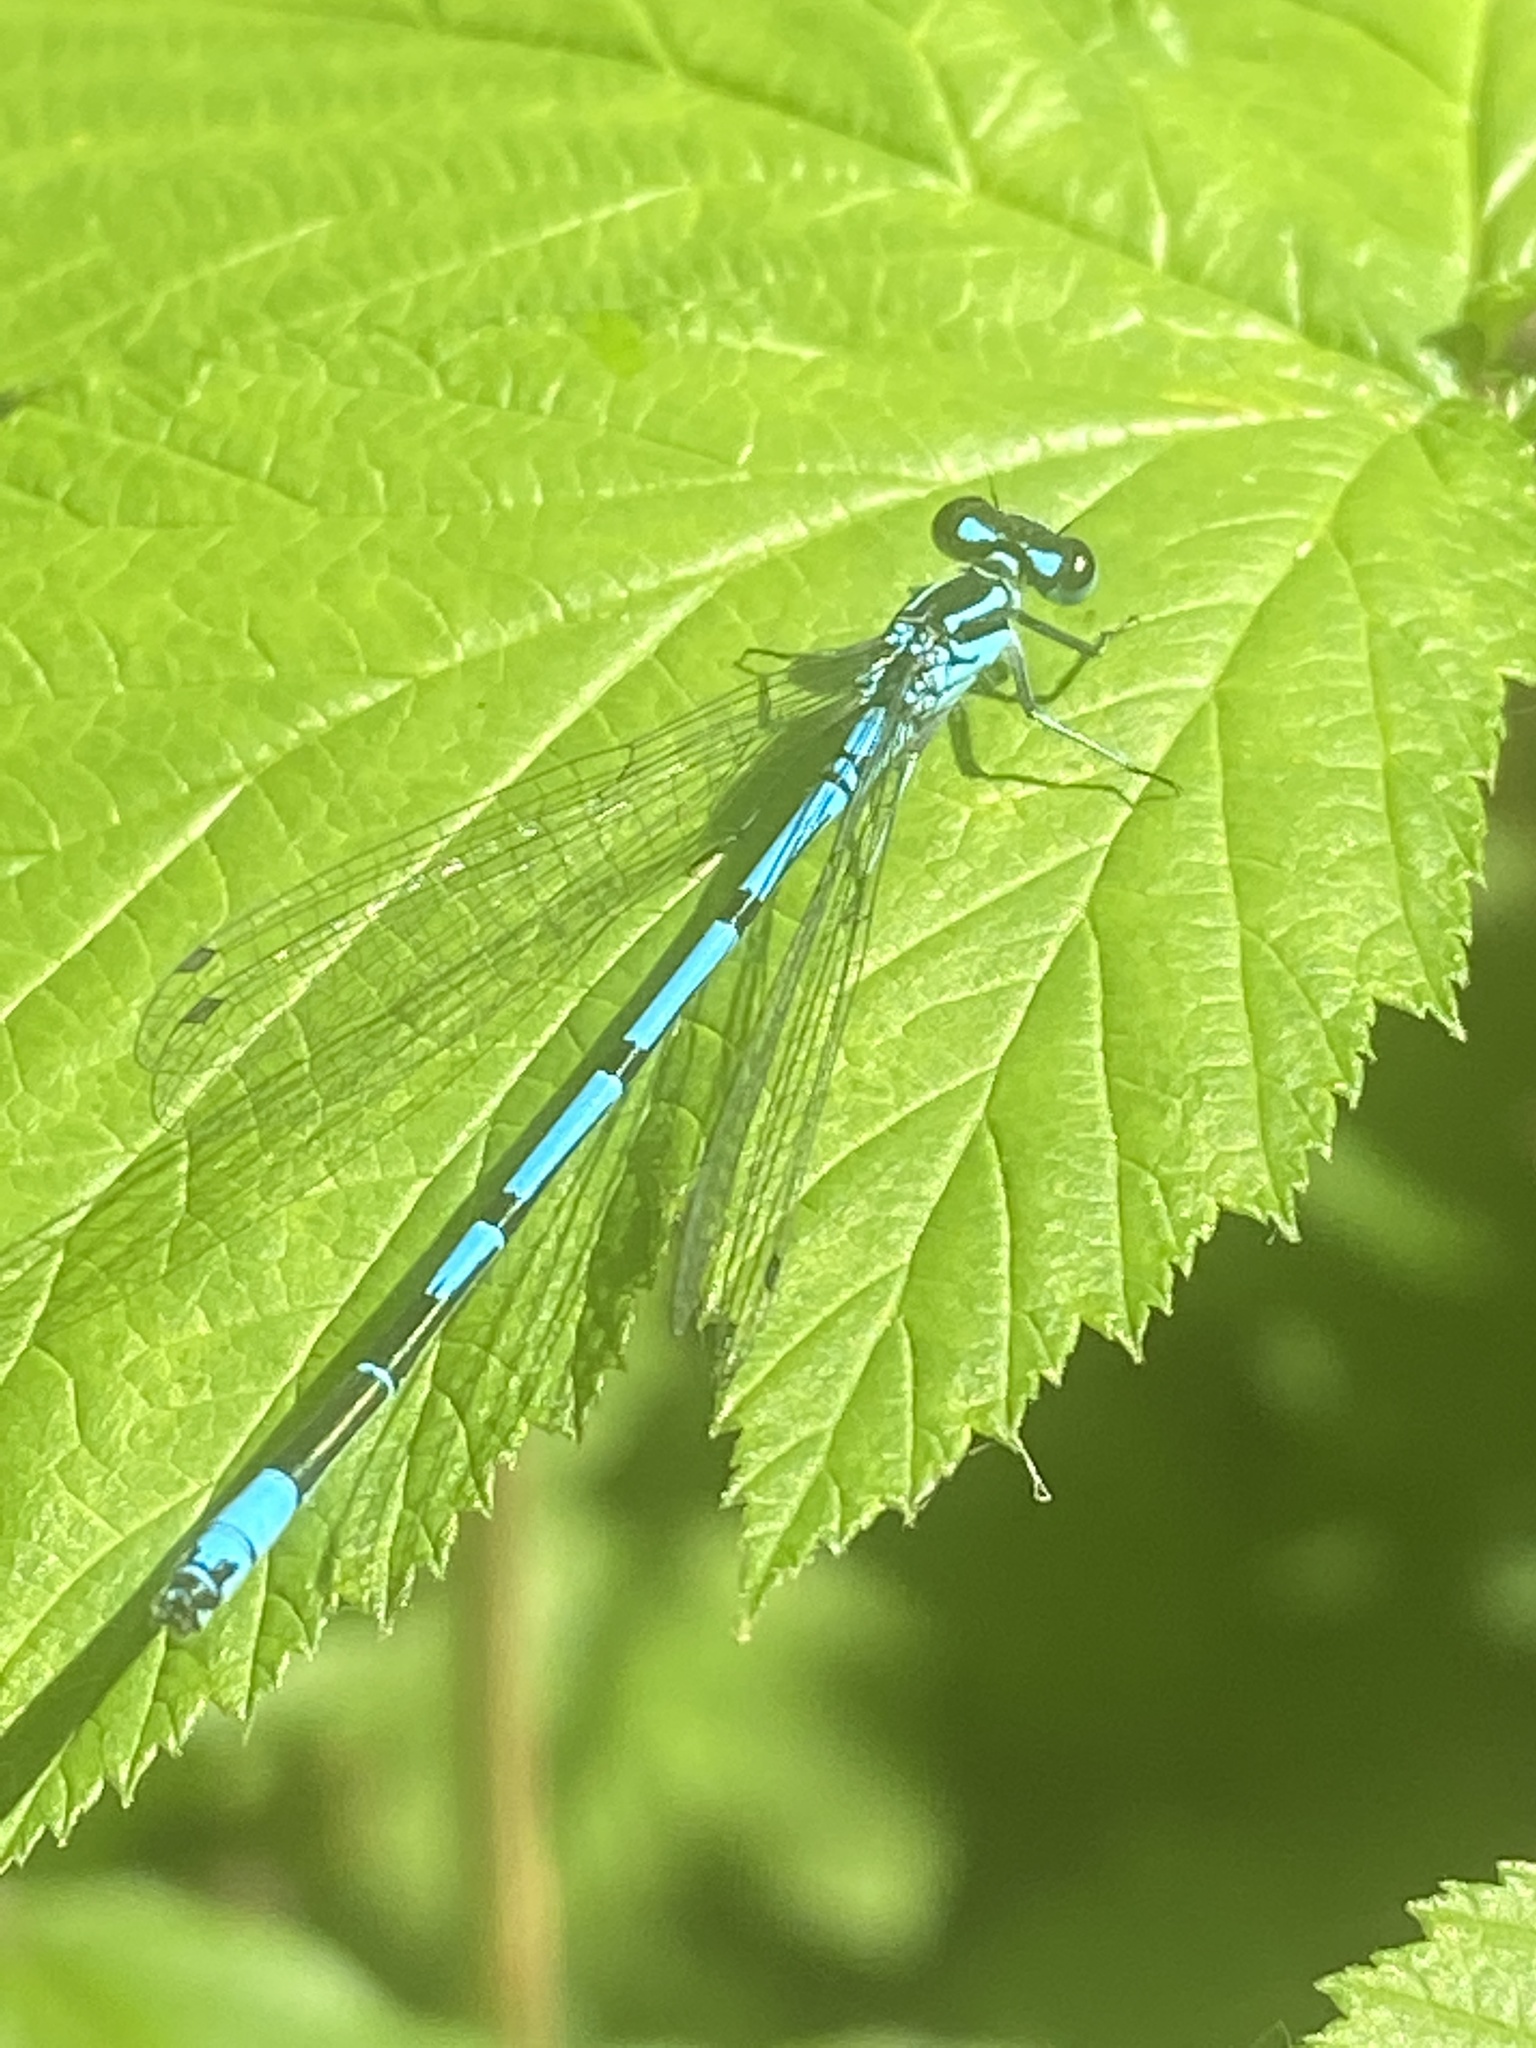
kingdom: Animalia
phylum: Arthropoda
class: Insecta
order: Odonata
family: Coenagrionidae
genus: Coenagrion
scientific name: Coenagrion puella
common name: Azure damselfly
